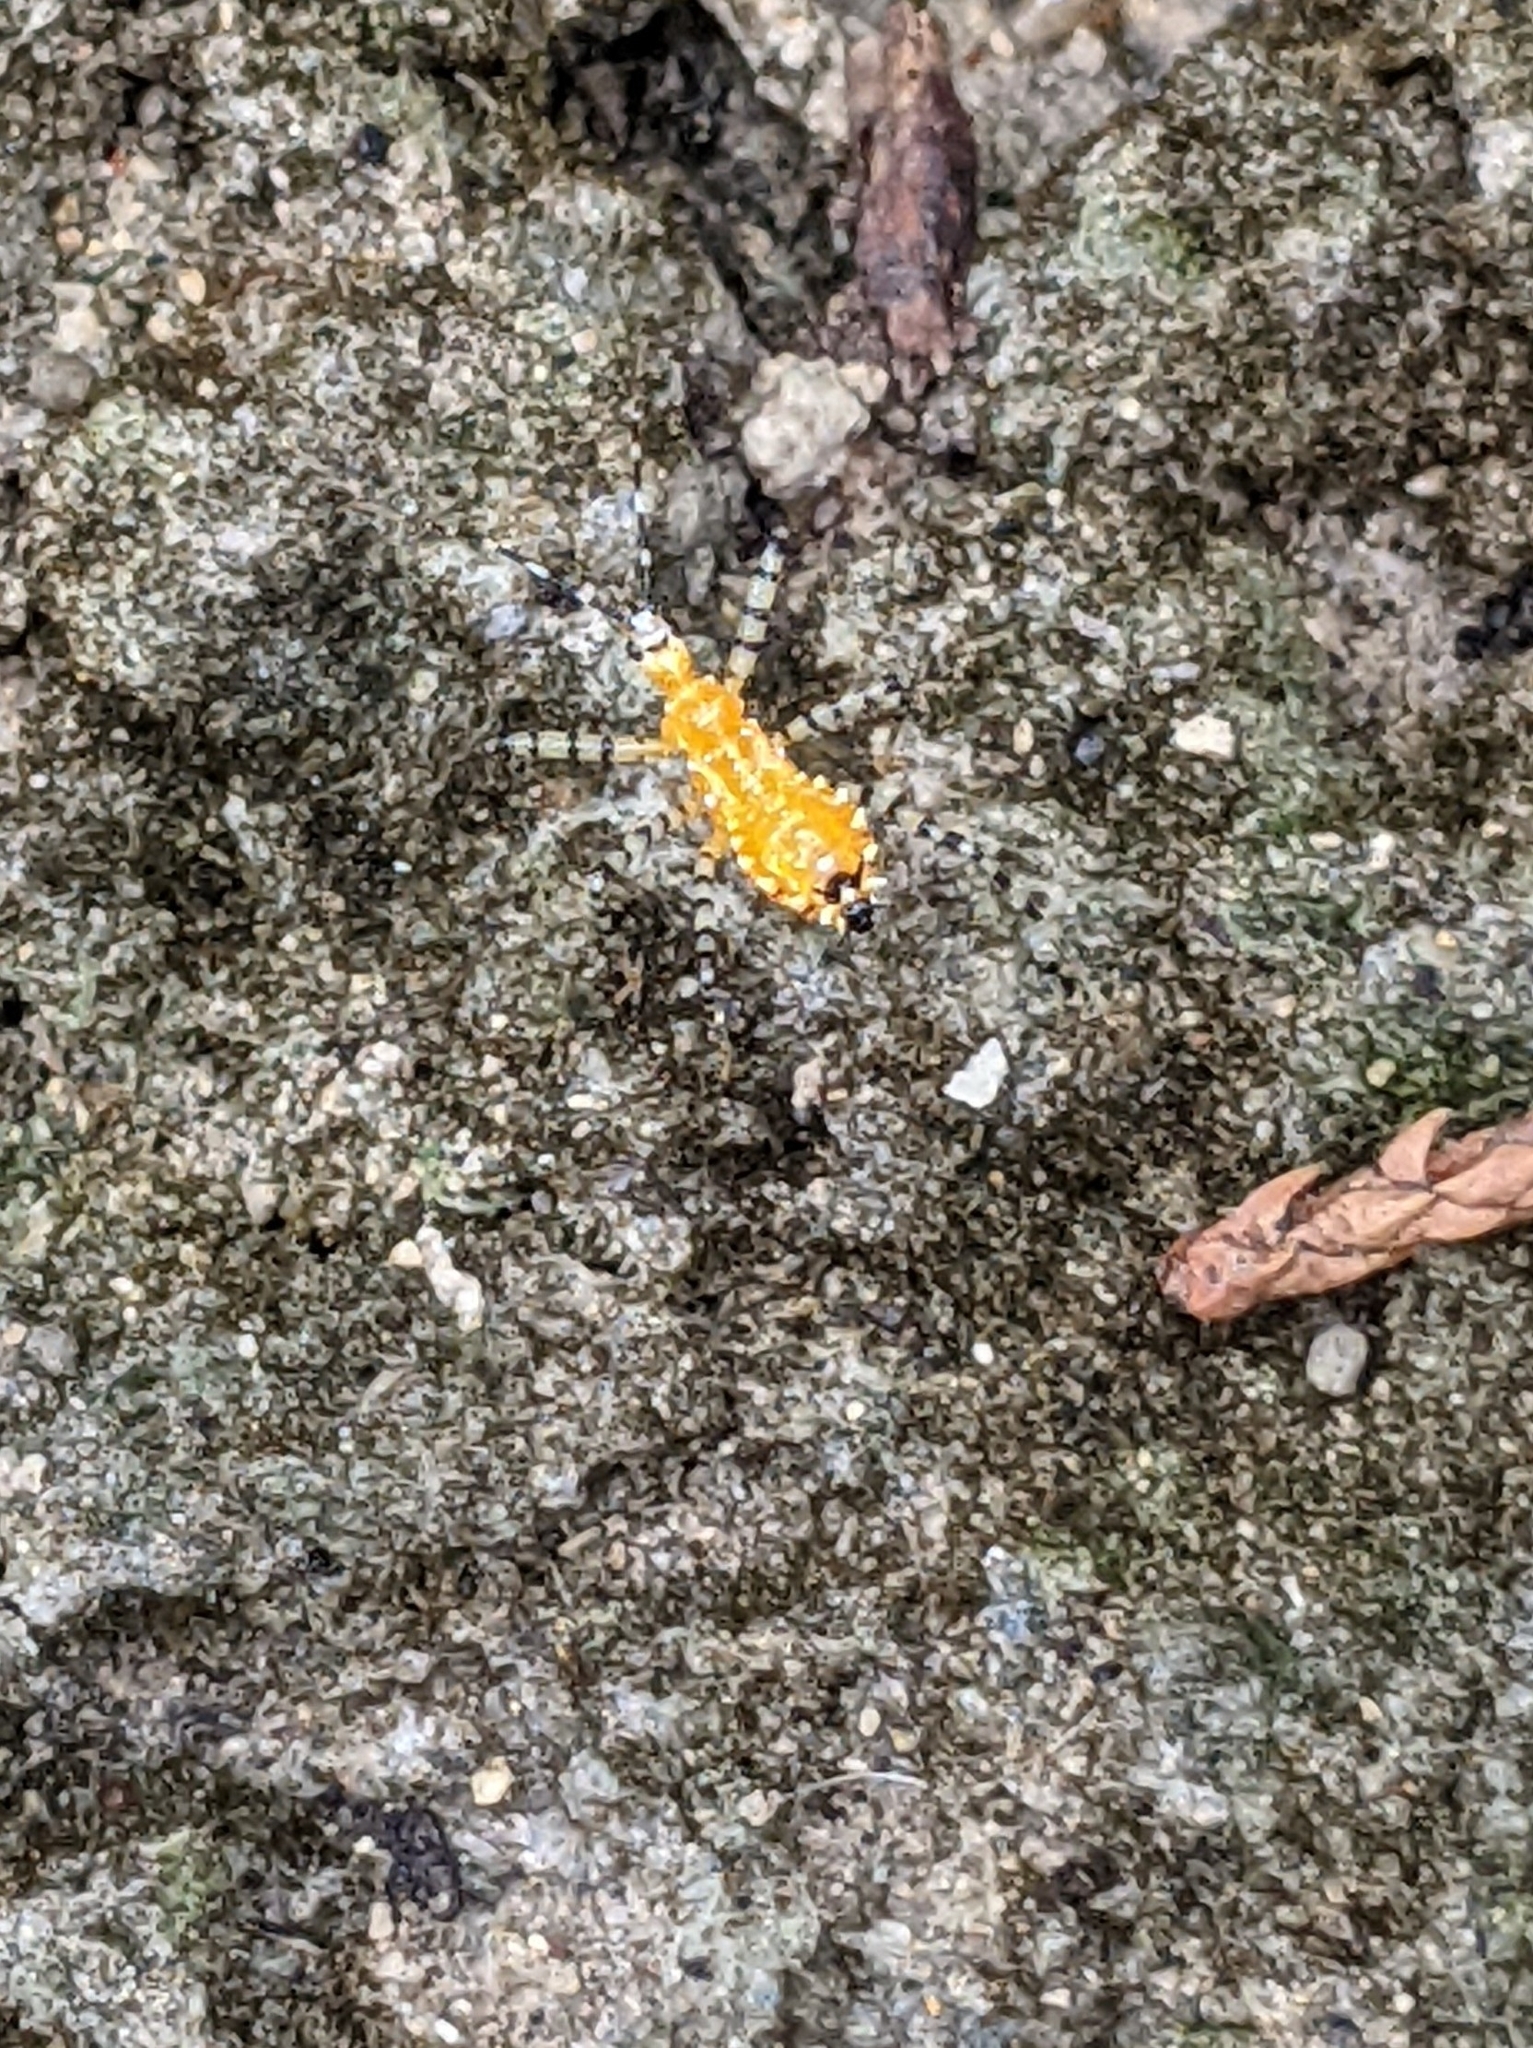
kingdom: Animalia
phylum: Arthropoda
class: Insecta
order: Hemiptera
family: Reduviidae
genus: Pselliopus
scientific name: Pselliopus barberi
